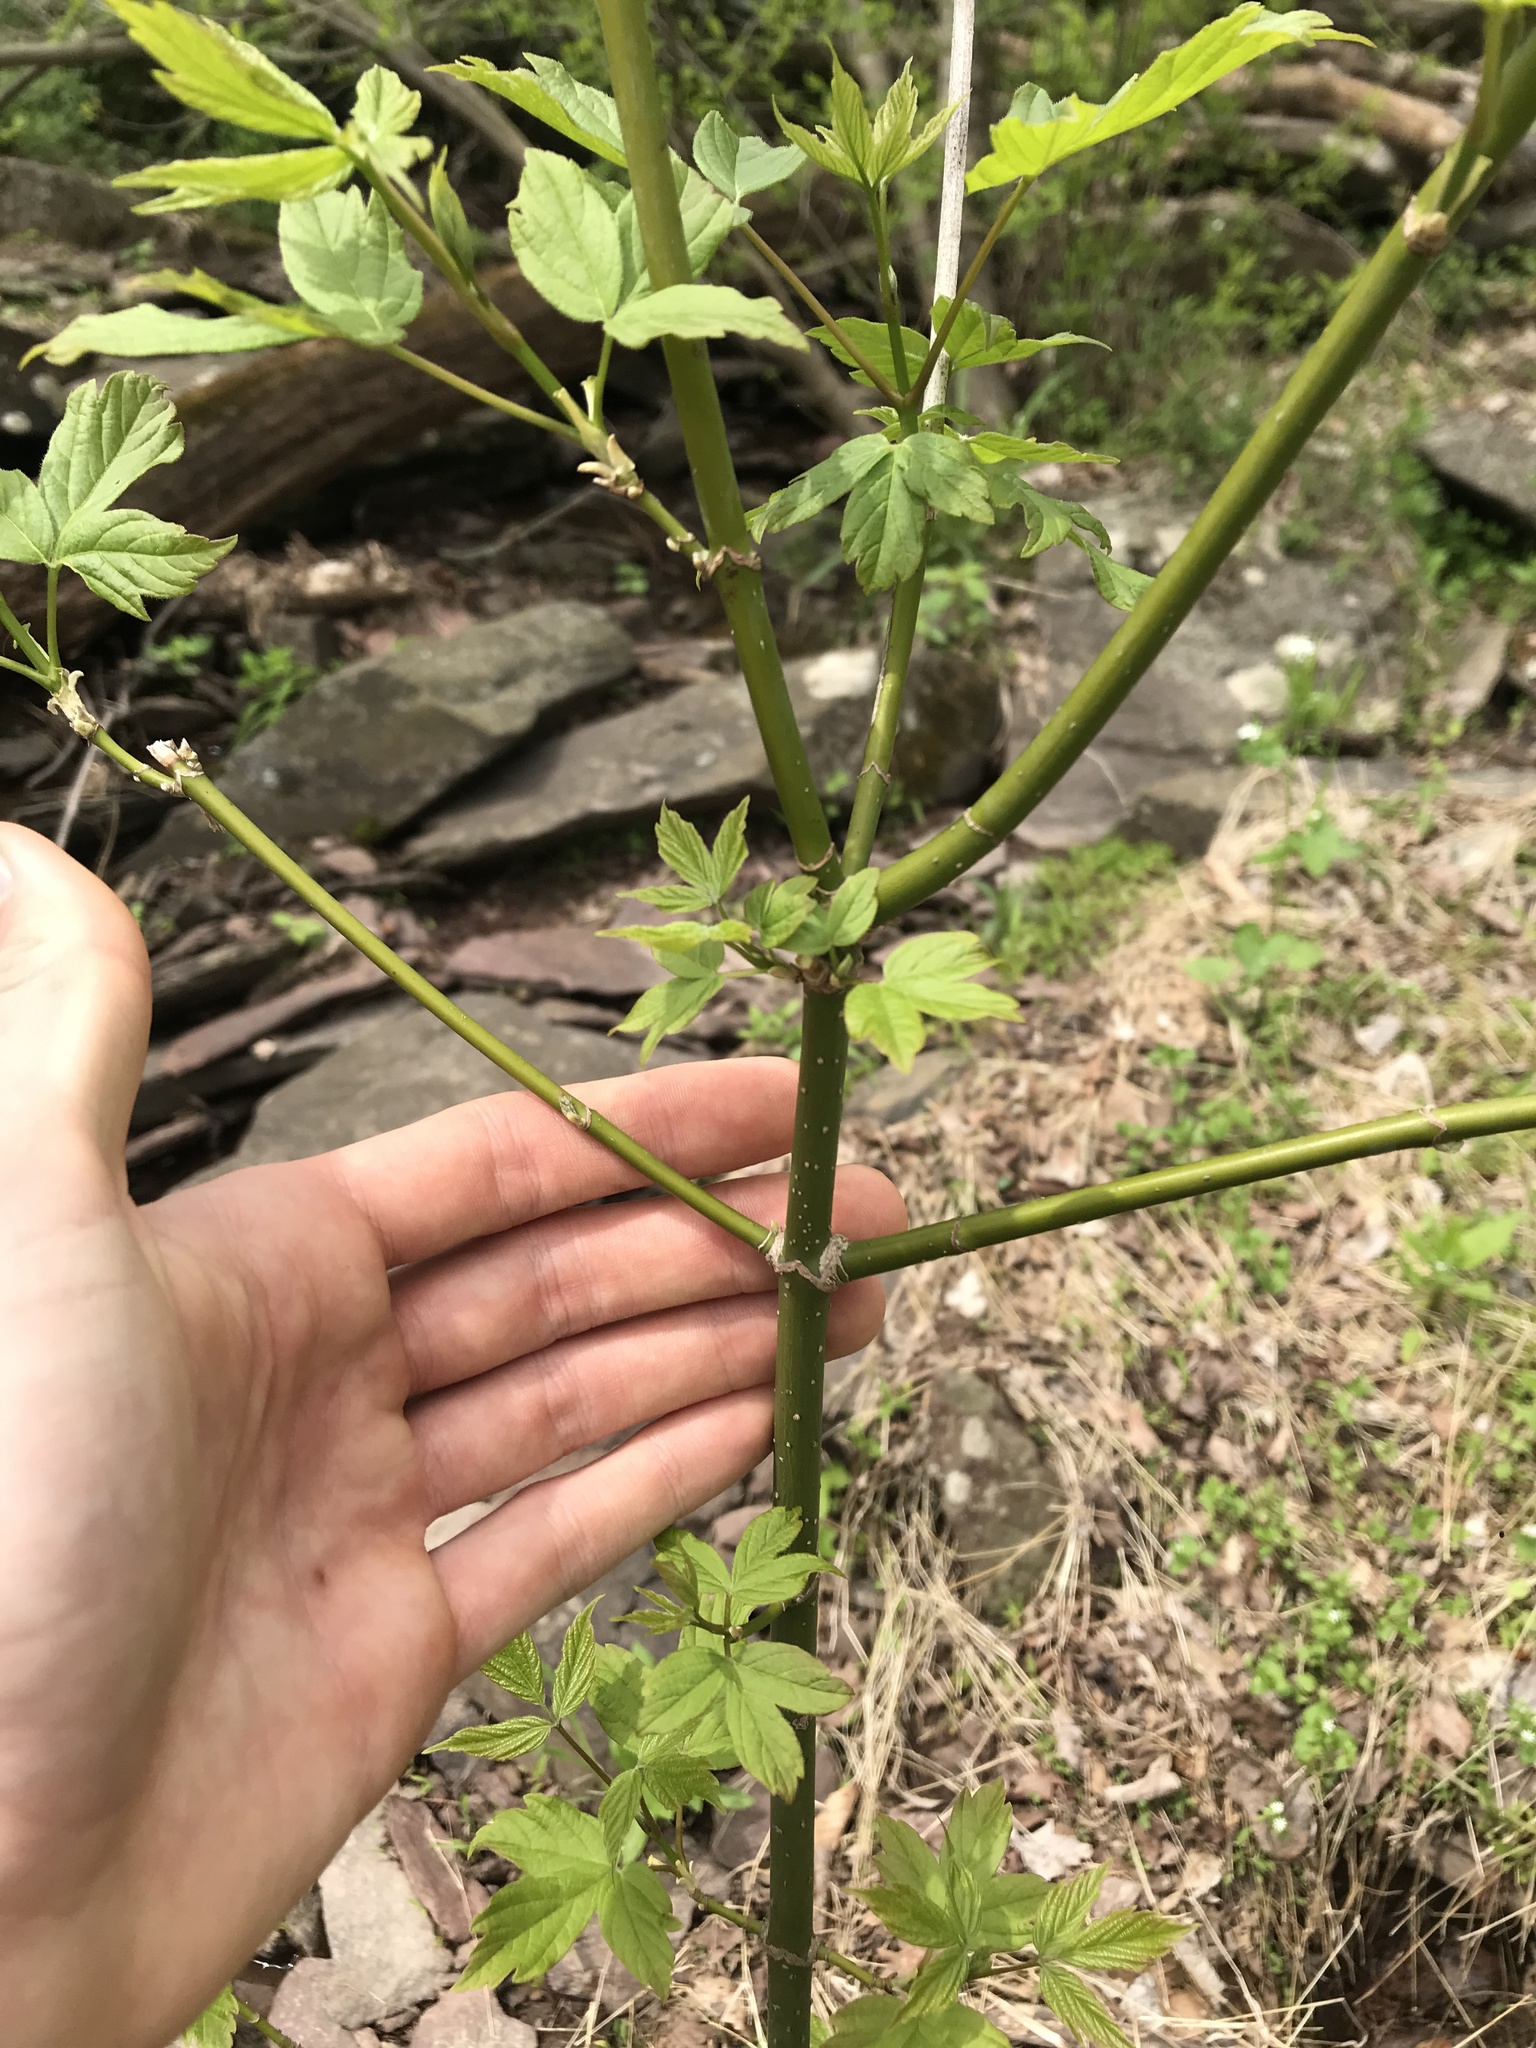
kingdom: Plantae
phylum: Tracheophyta
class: Magnoliopsida
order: Sapindales
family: Sapindaceae
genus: Acer
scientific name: Acer negundo
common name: Ashleaf maple
